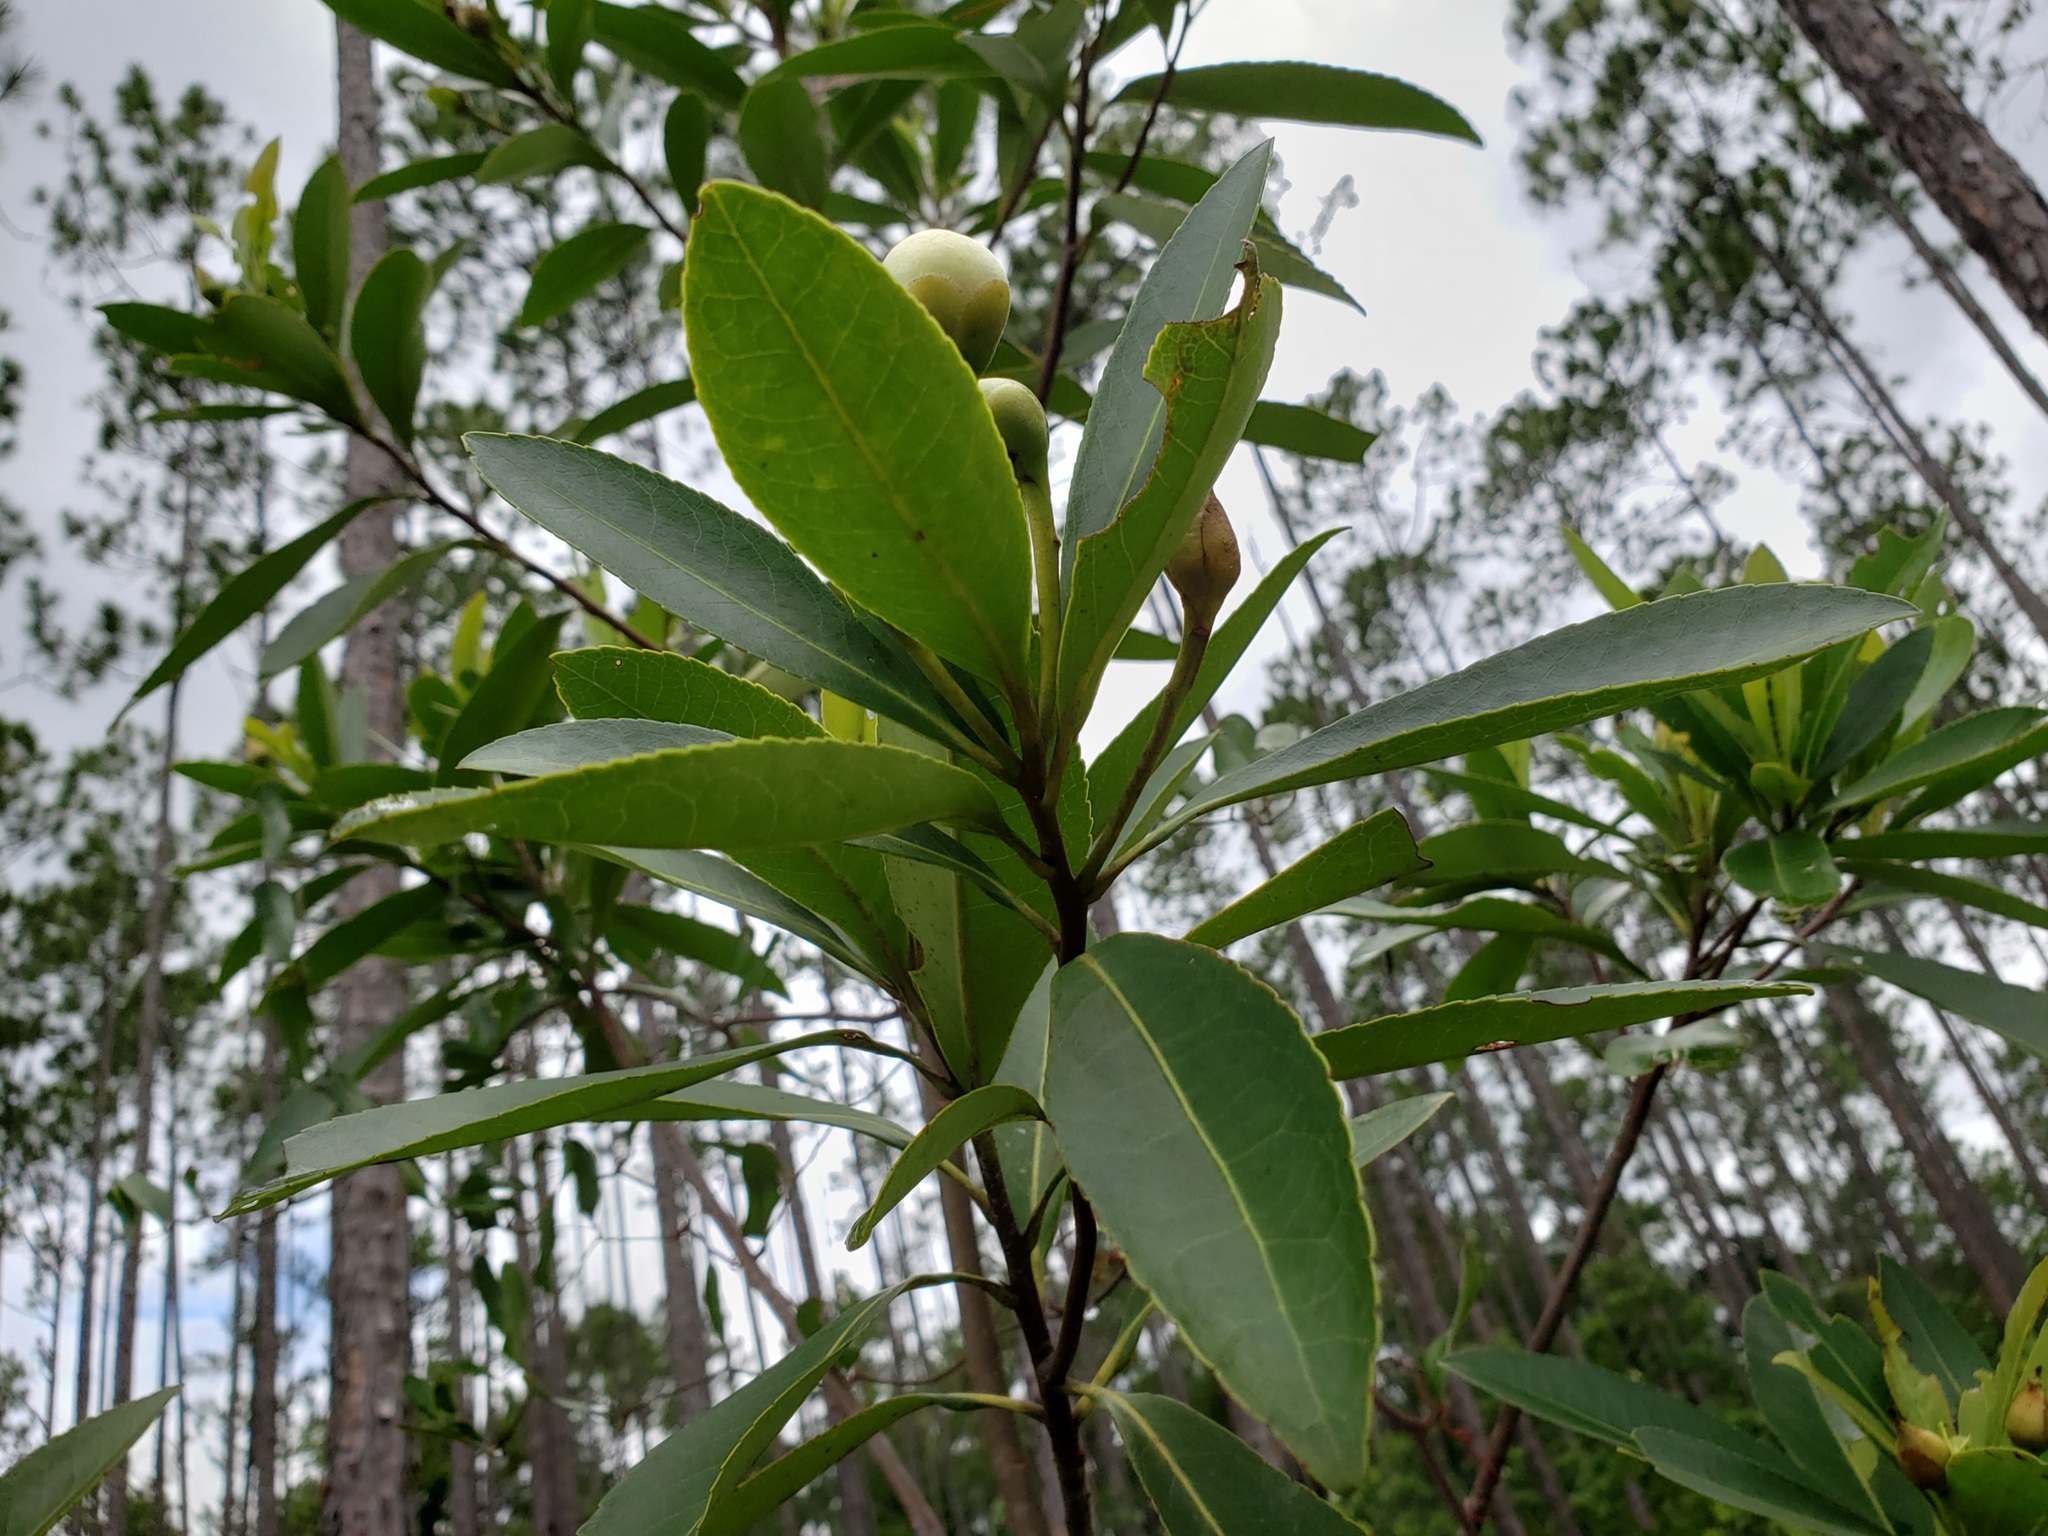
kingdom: Plantae
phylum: Tracheophyta
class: Magnoliopsida
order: Ericales
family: Theaceae
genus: Gordonia
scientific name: Gordonia lasianthus
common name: Loblolly bay
